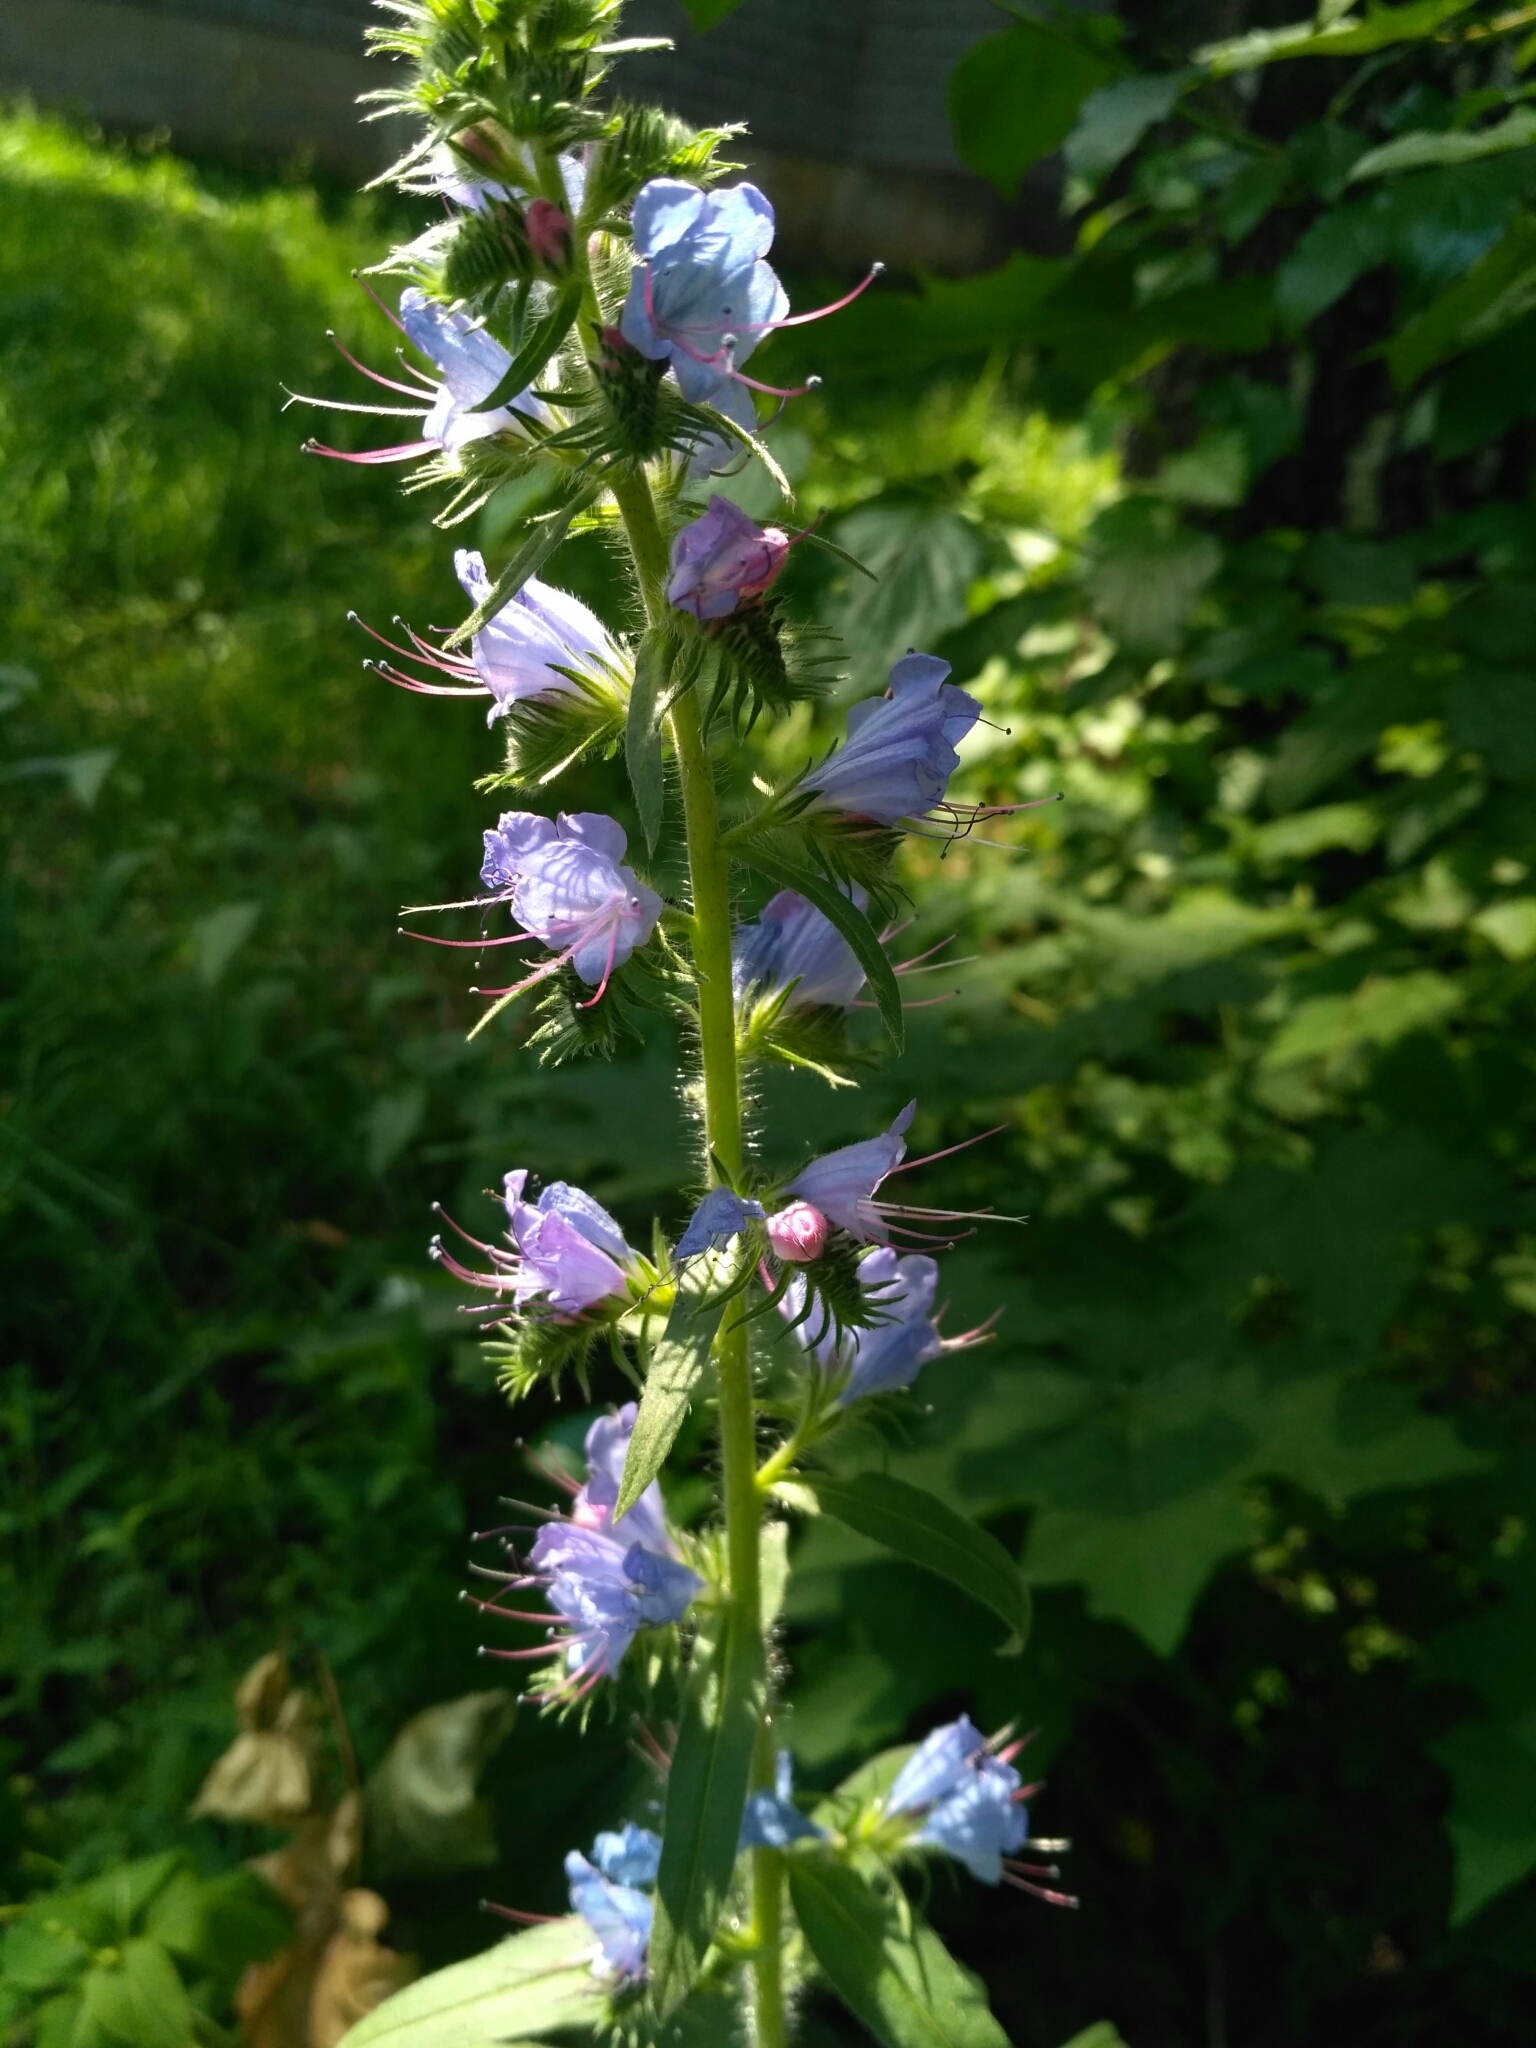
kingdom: Plantae
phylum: Tracheophyta
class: Magnoliopsida
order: Boraginales
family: Boraginaceae
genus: Echium
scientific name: Echium vulgare
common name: Common viper's bugloss
